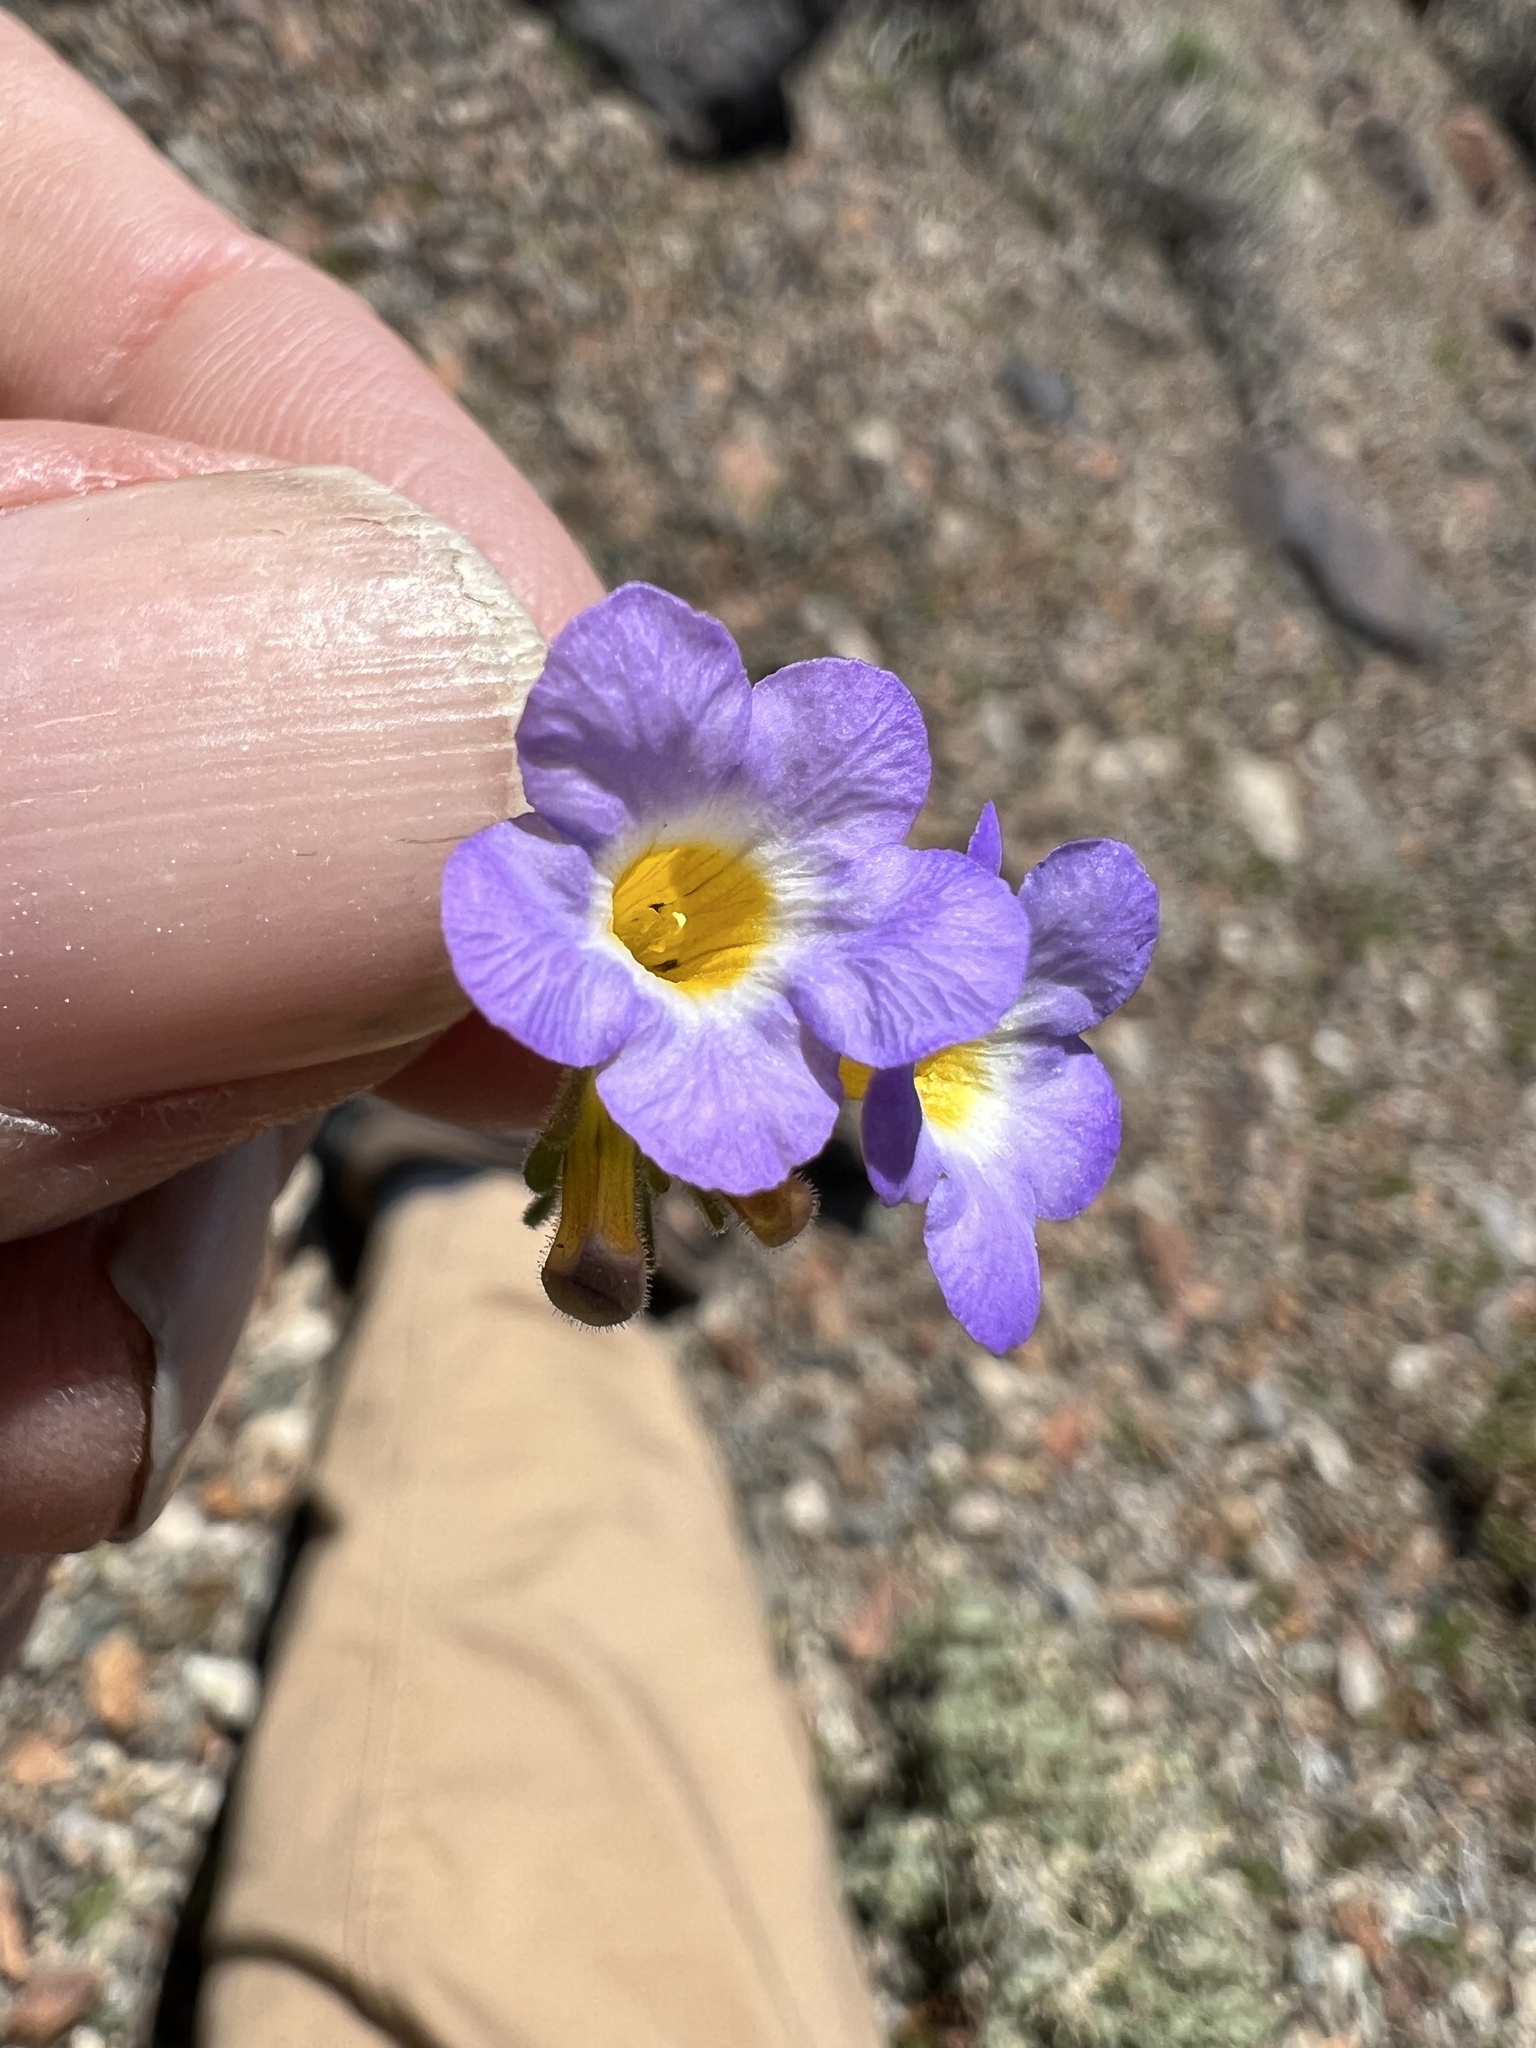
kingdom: Plantae
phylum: Tracheophyta
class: Magnoliopsida
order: Boraginales
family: Hydrophyllaceae
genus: Phacelia
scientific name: Phacelia fremontii
